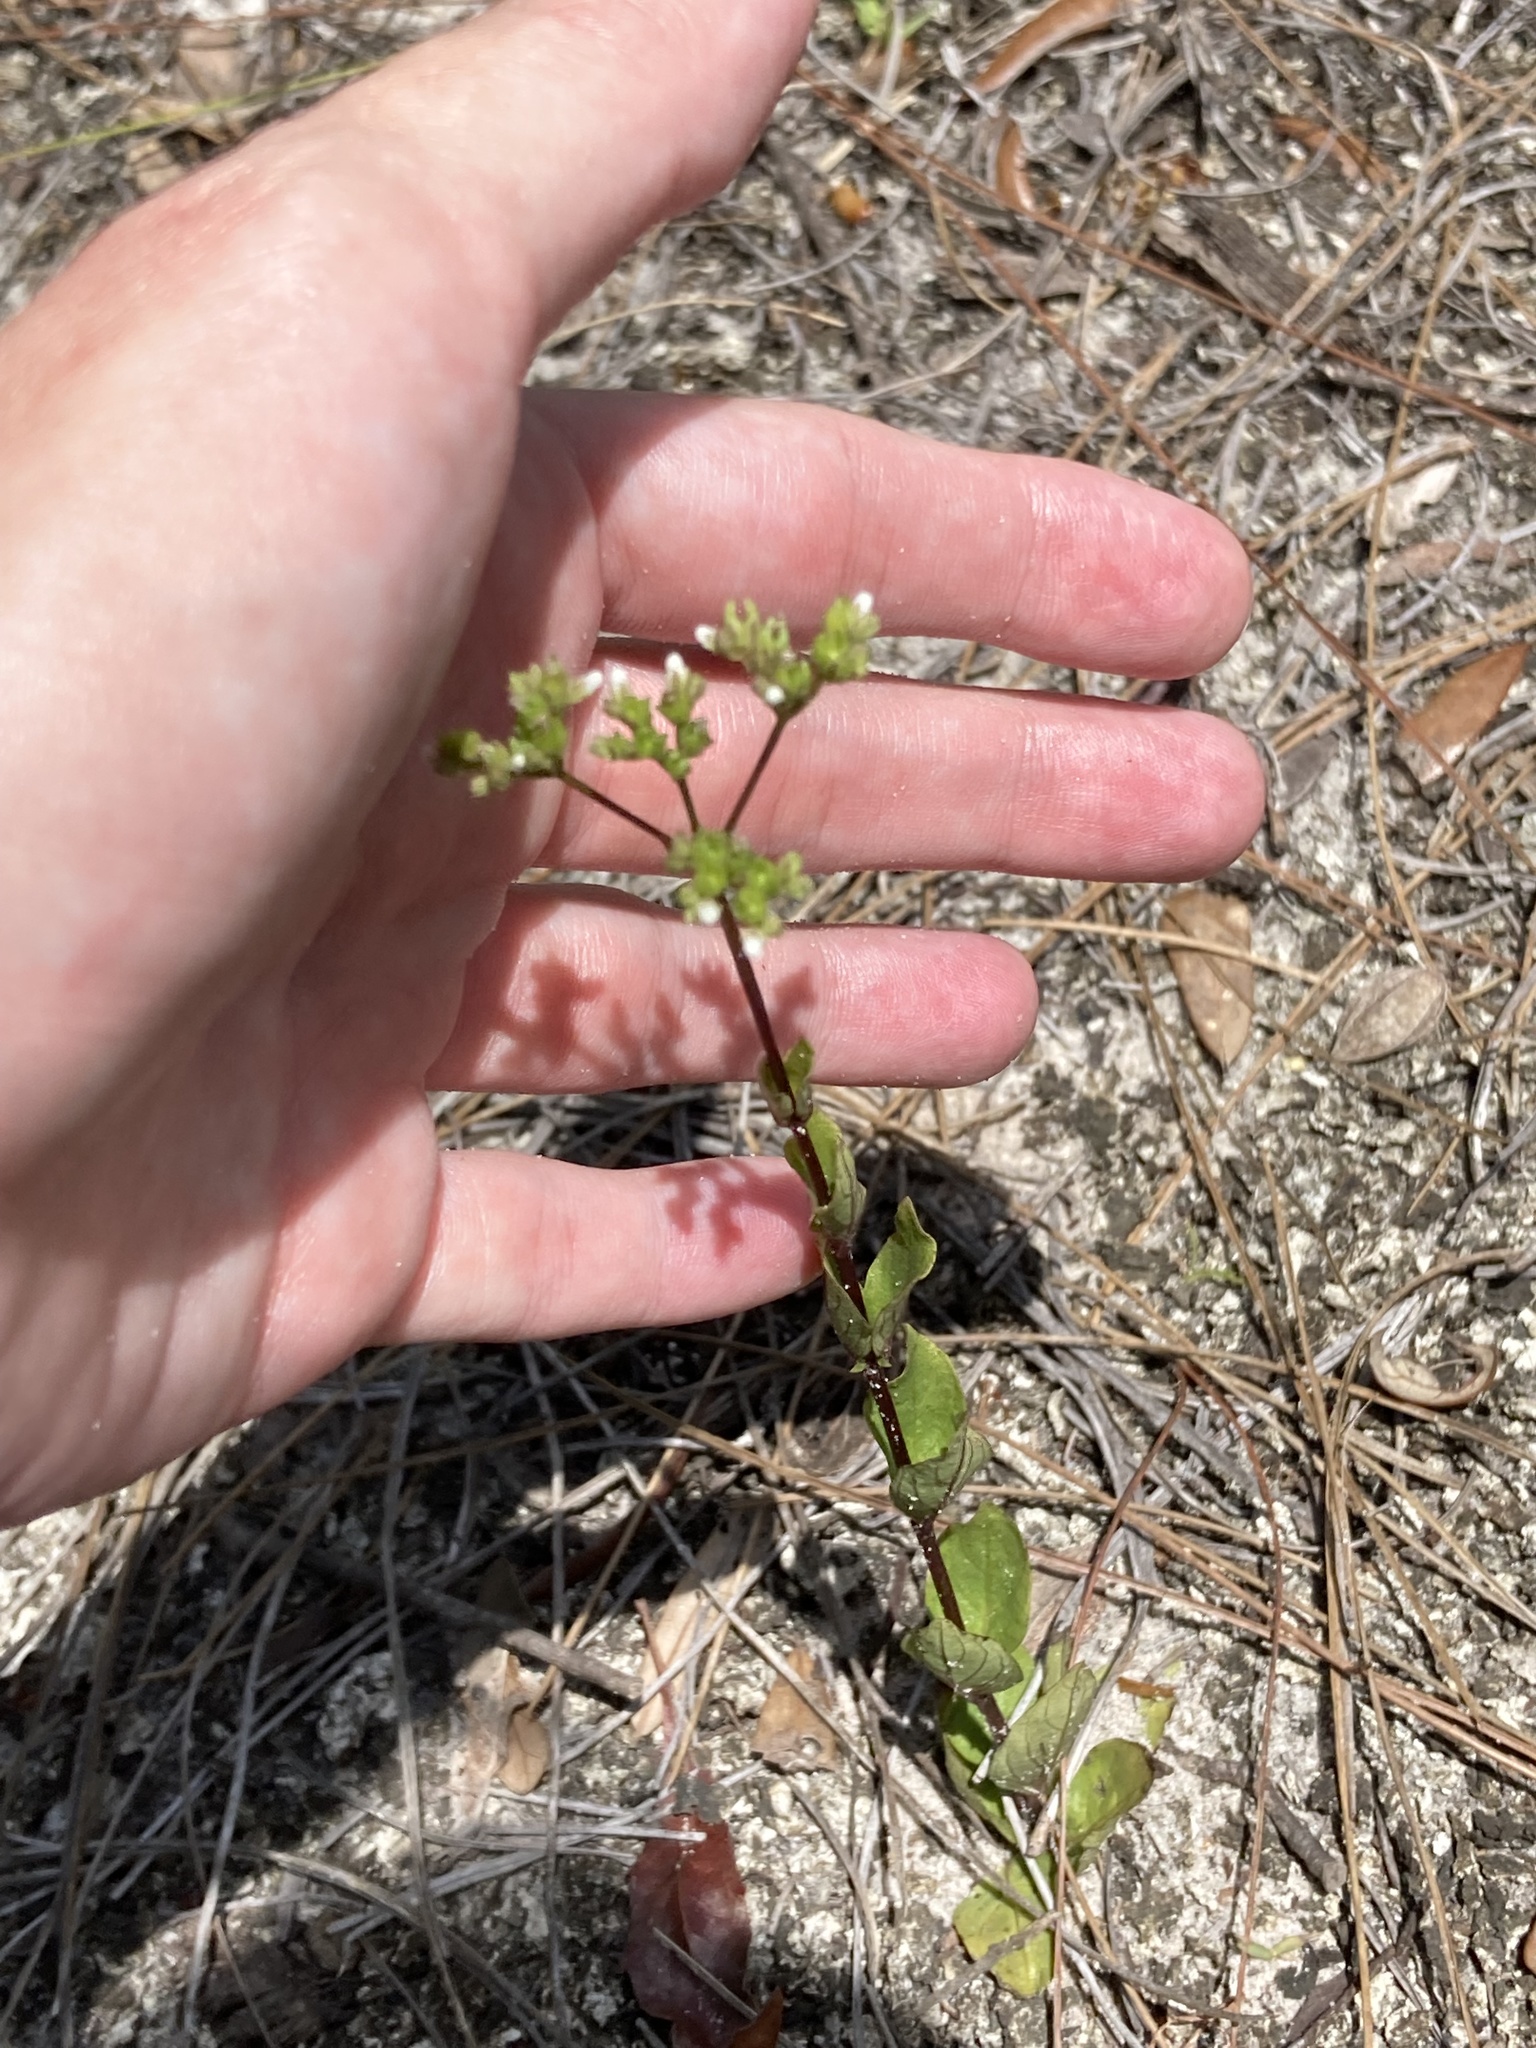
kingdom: Plantae
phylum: Tracheophyta
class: Magnoliopsida
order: Gentianales
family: Loganiaceae
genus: Mitreola
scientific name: Mitreola petiolata
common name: Lax hornpod
